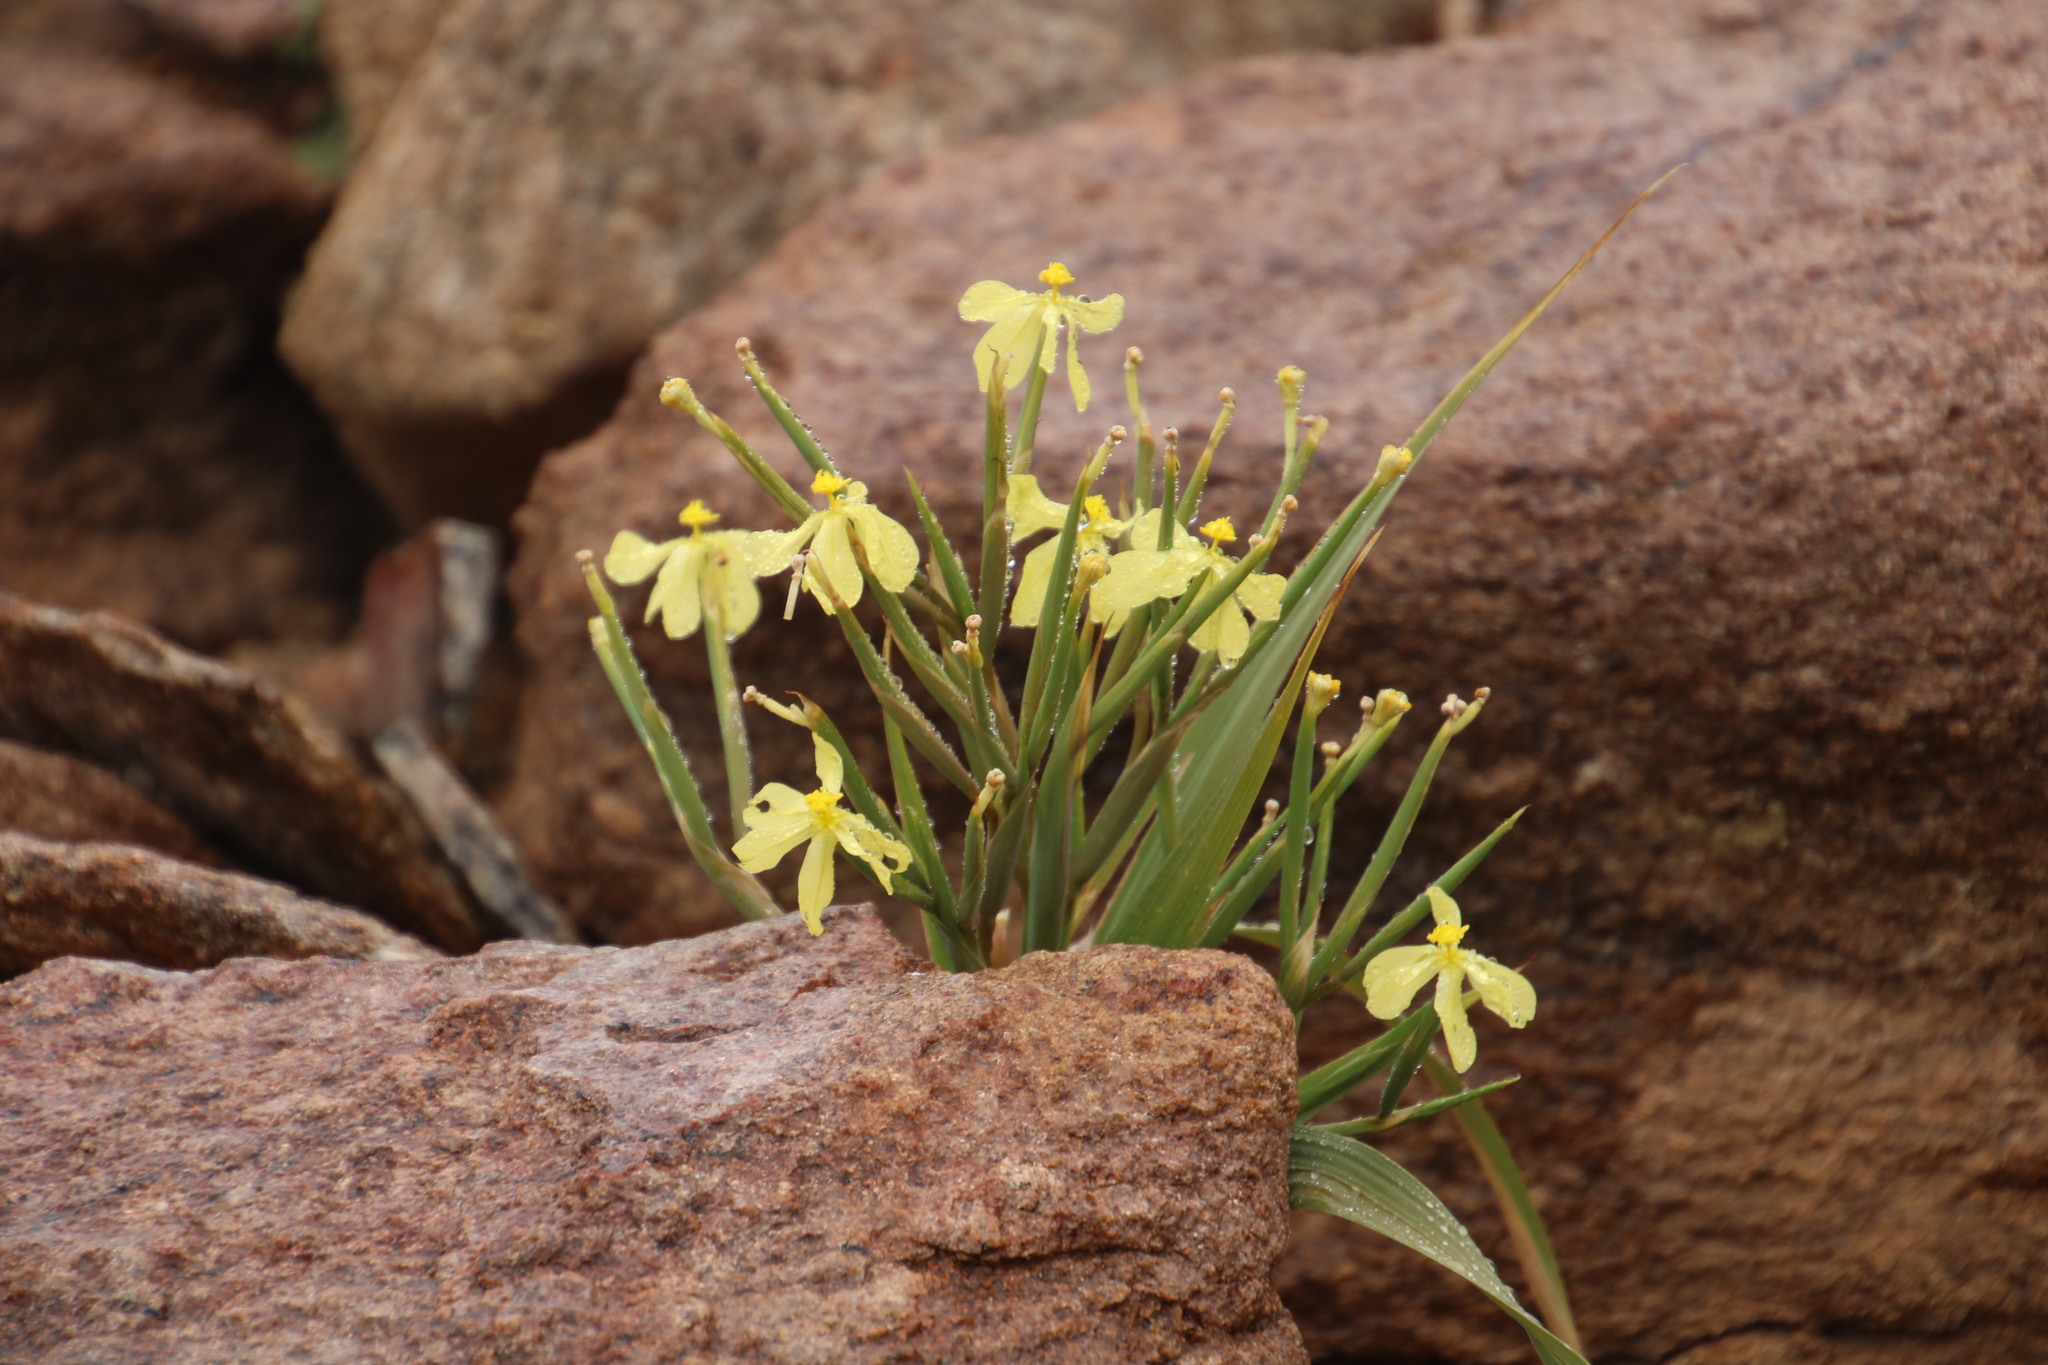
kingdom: Plantae
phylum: Tracheophyta
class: Liliopsida
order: Asparagales
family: Iridaceae
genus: Moraea
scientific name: Moraea schlechteri
